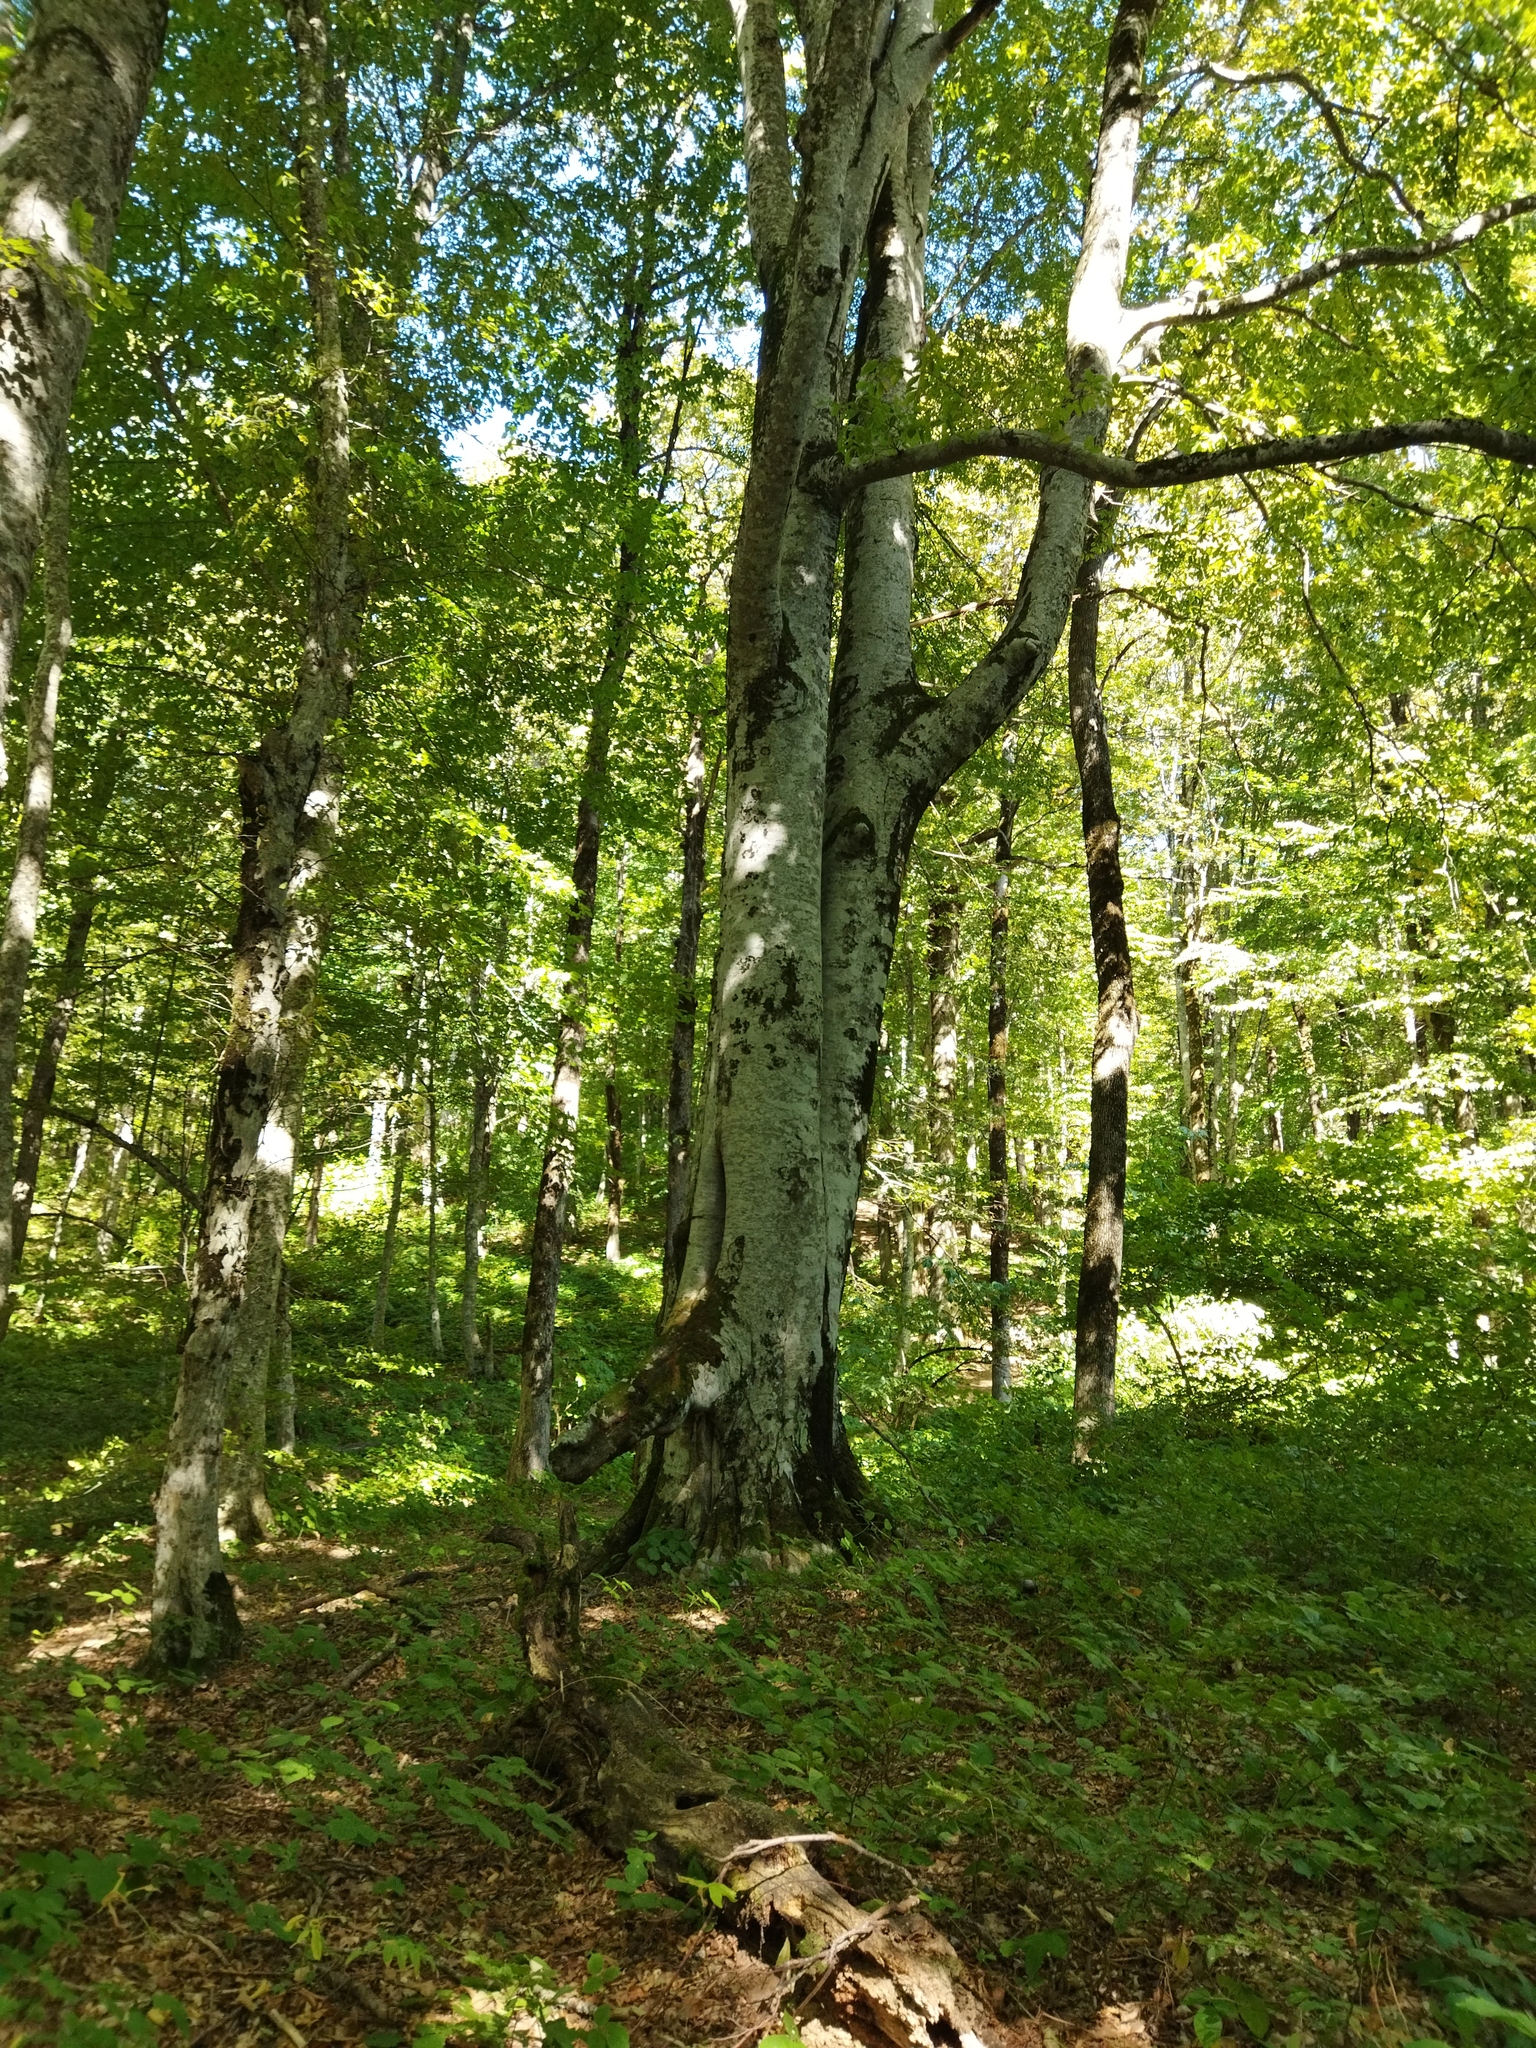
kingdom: Plantae
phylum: Tracheophyta
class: Magnoliopsida
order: Fagales
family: Fagaceae
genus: Fagus
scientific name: Fagus orientalis
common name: Oriental beech
